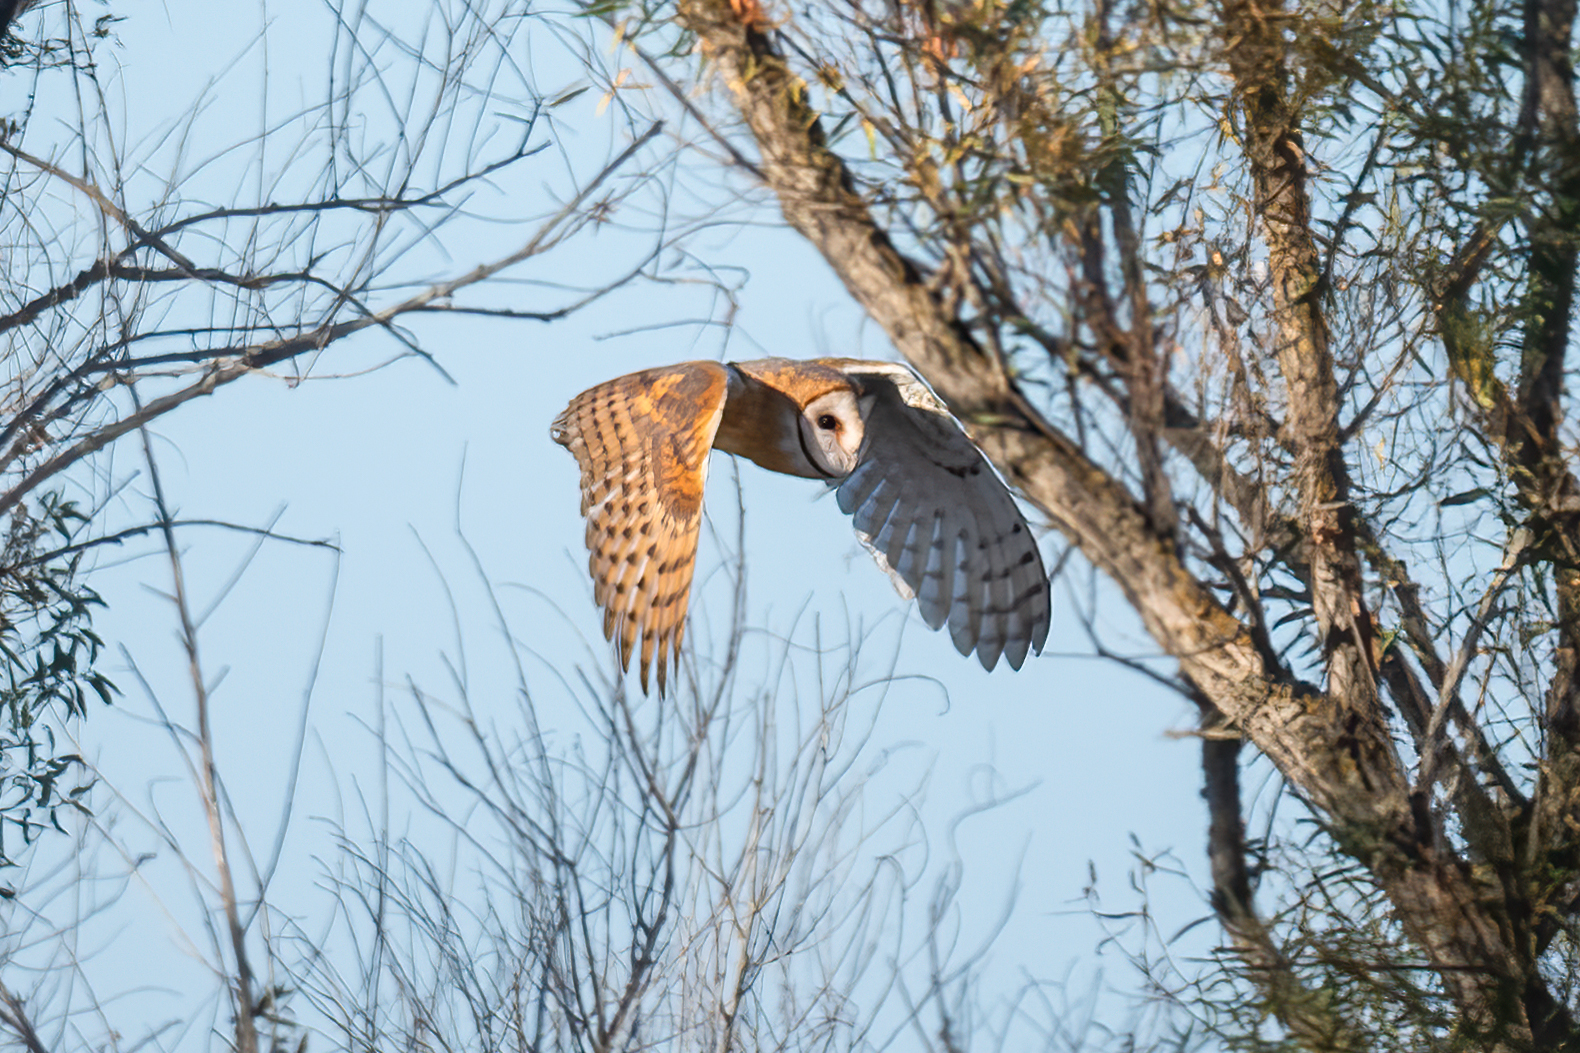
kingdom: Animalia
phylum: Chordata
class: Aves
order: Strigiformes
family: Tytonidae
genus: Tyto
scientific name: Tyto alba
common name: Barn owl
